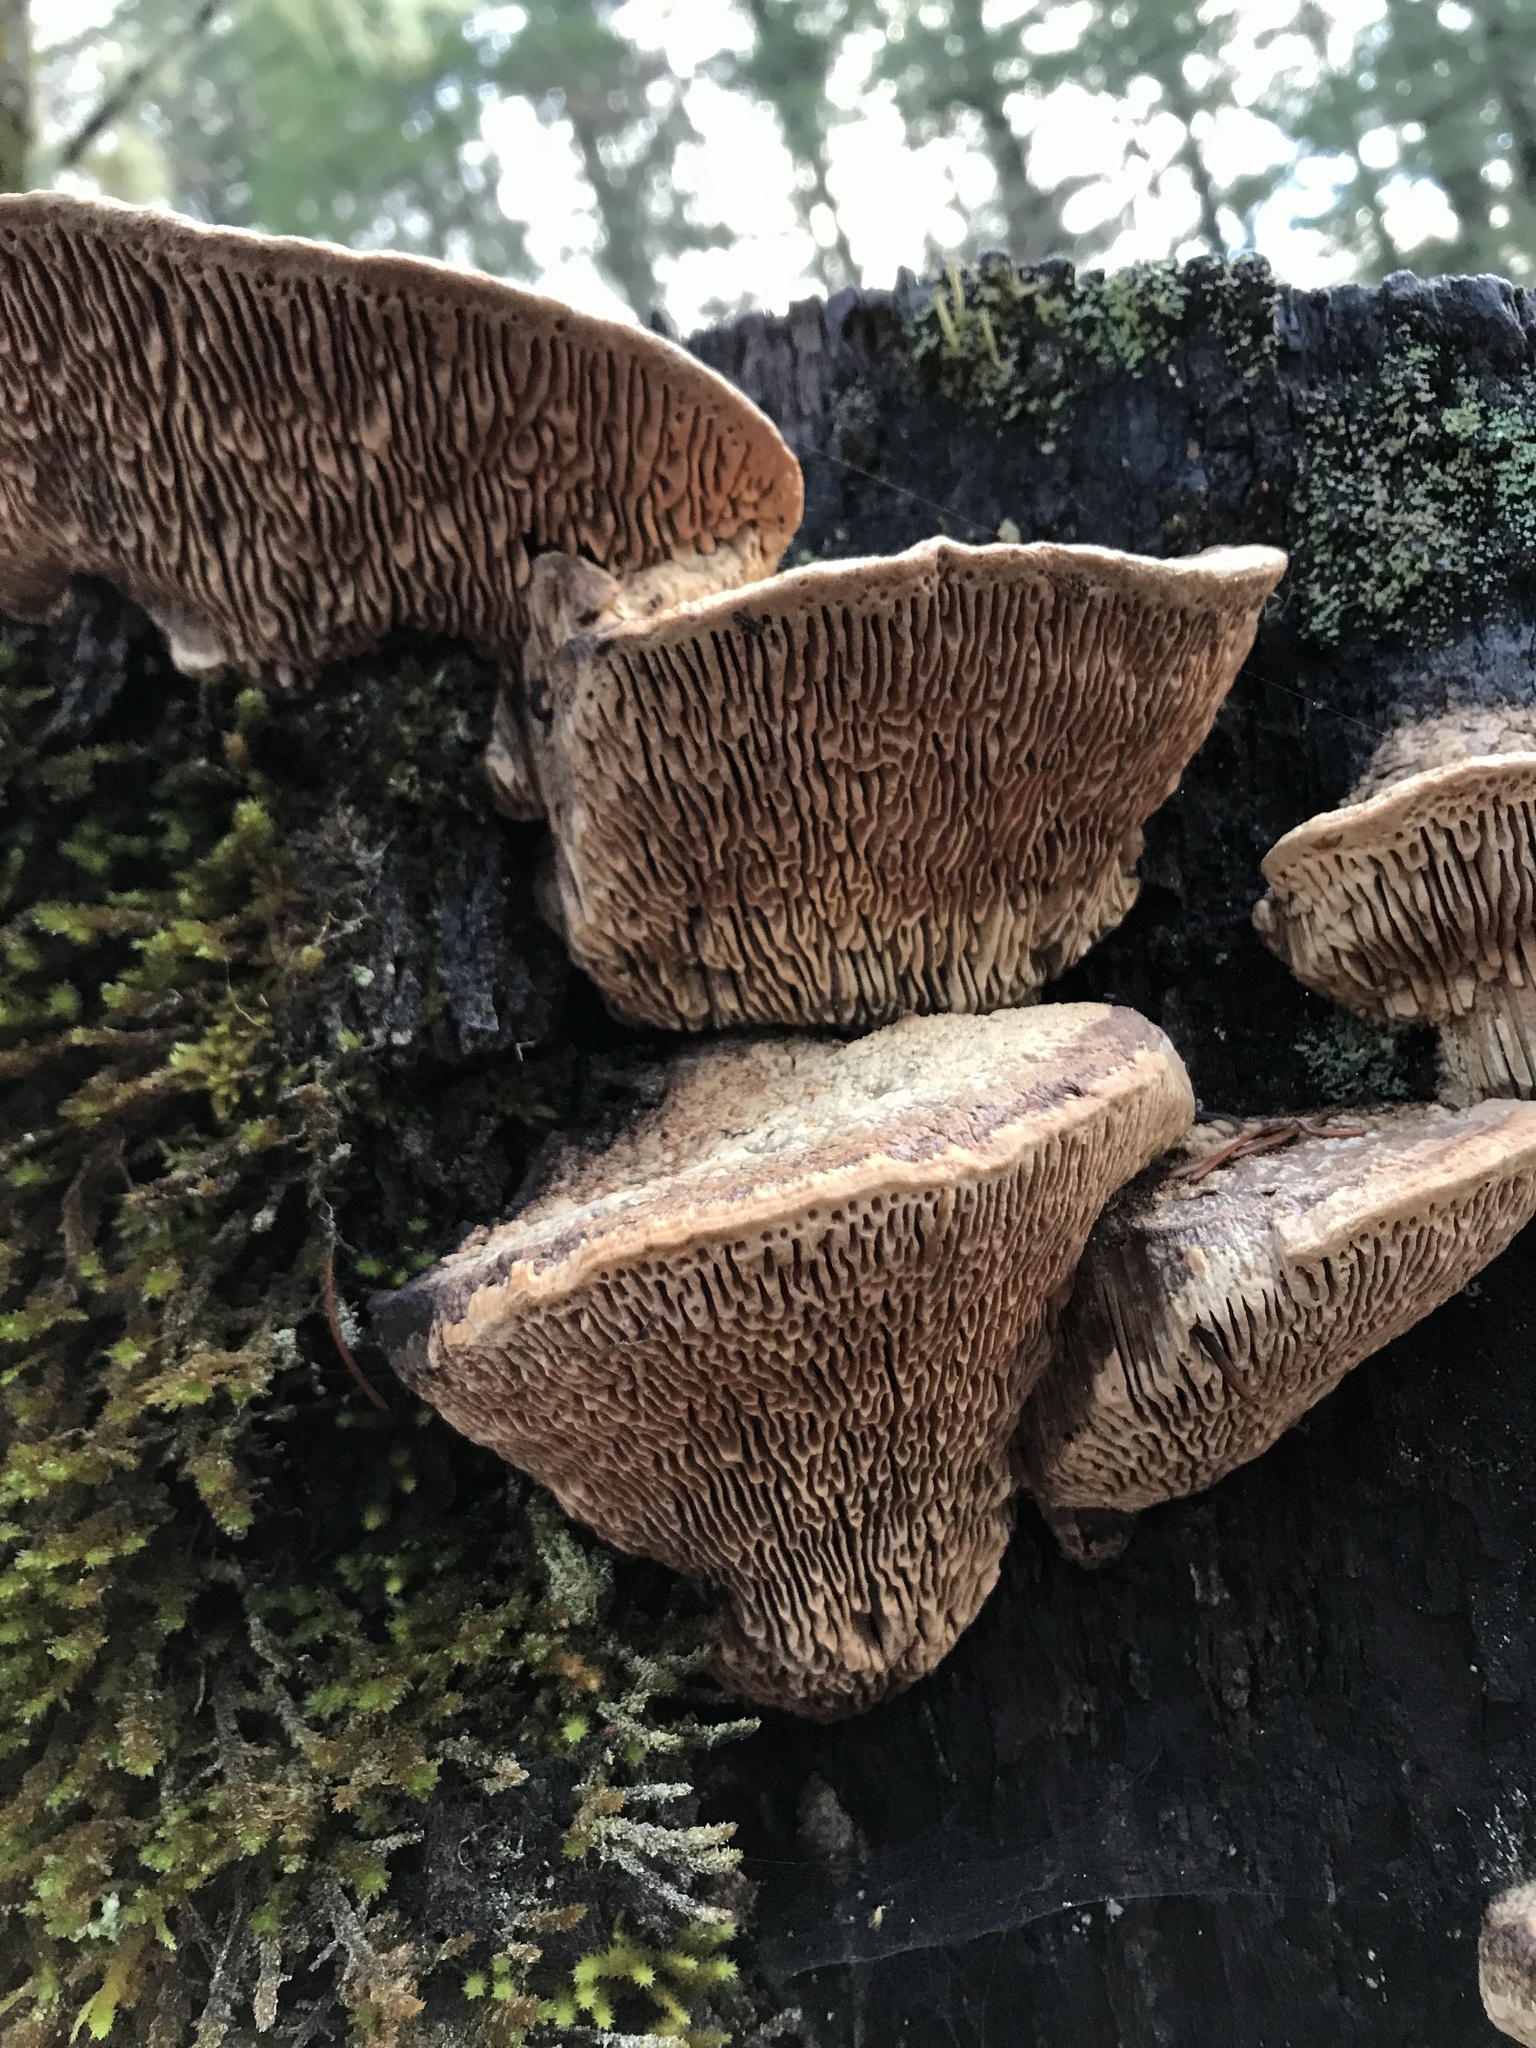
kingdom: Fungi
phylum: Basidiomycota
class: Agaricomycetes
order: Polyporales
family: Fomitopsidaceae
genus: Fomitopsis
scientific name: Fomitopsis
